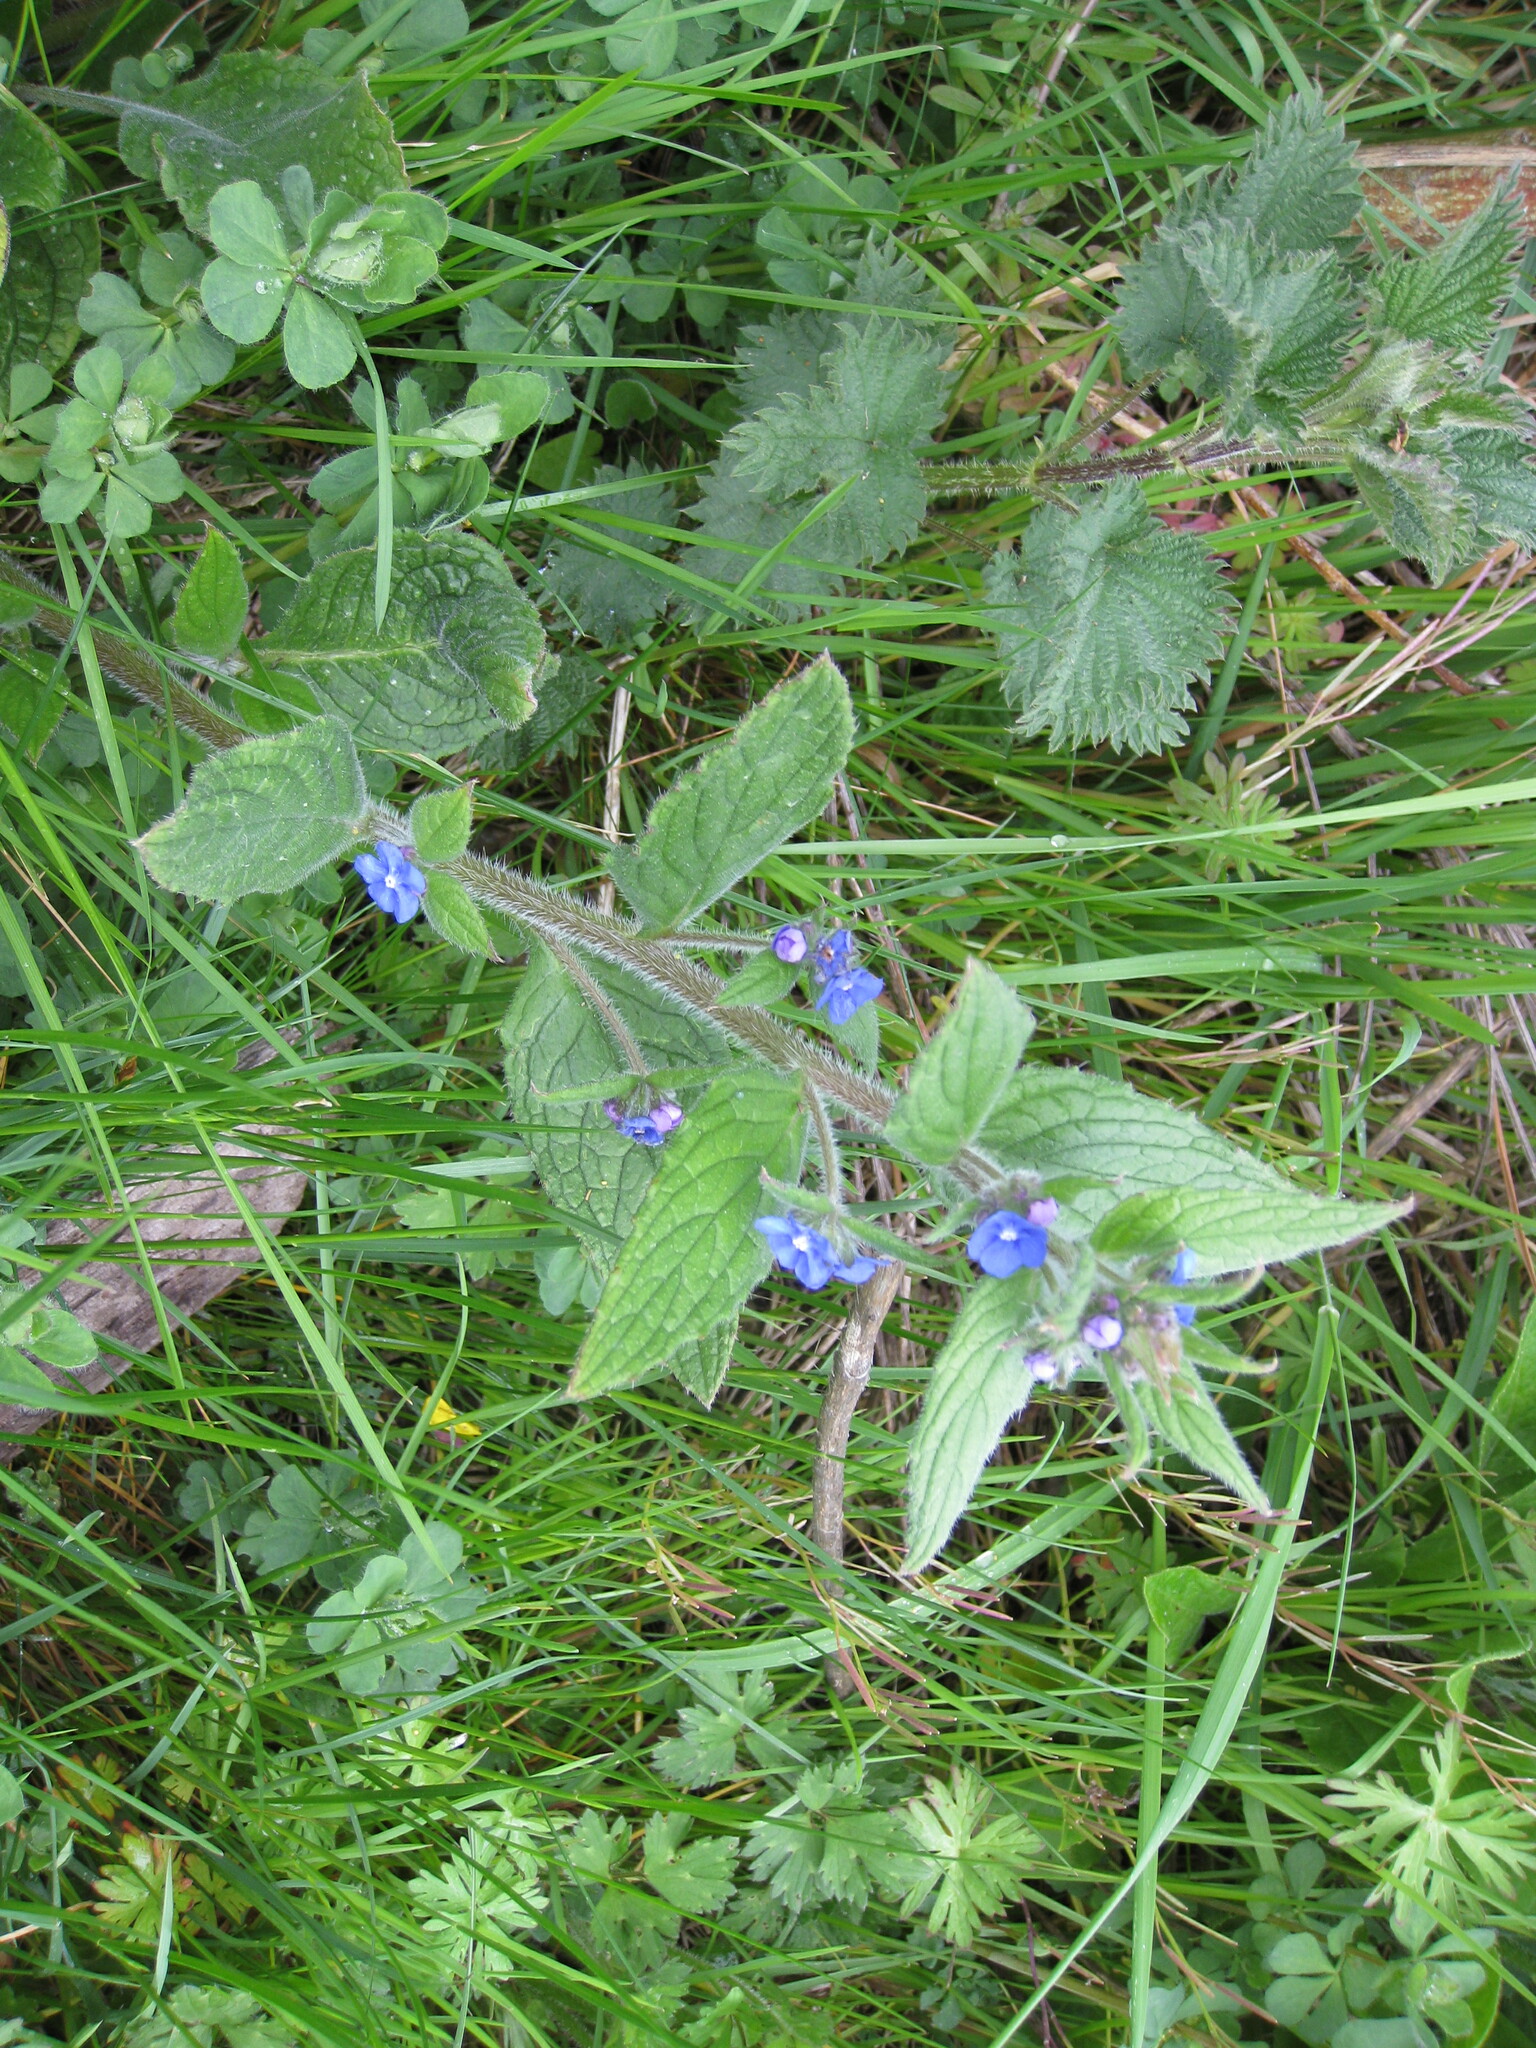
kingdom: Plantae
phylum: Tracheophyta
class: Magnoliopsida
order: Boraginales
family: Boraginaceae
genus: Pentaglottis
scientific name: Pentaglottis sempervirens
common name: Green alkanet
